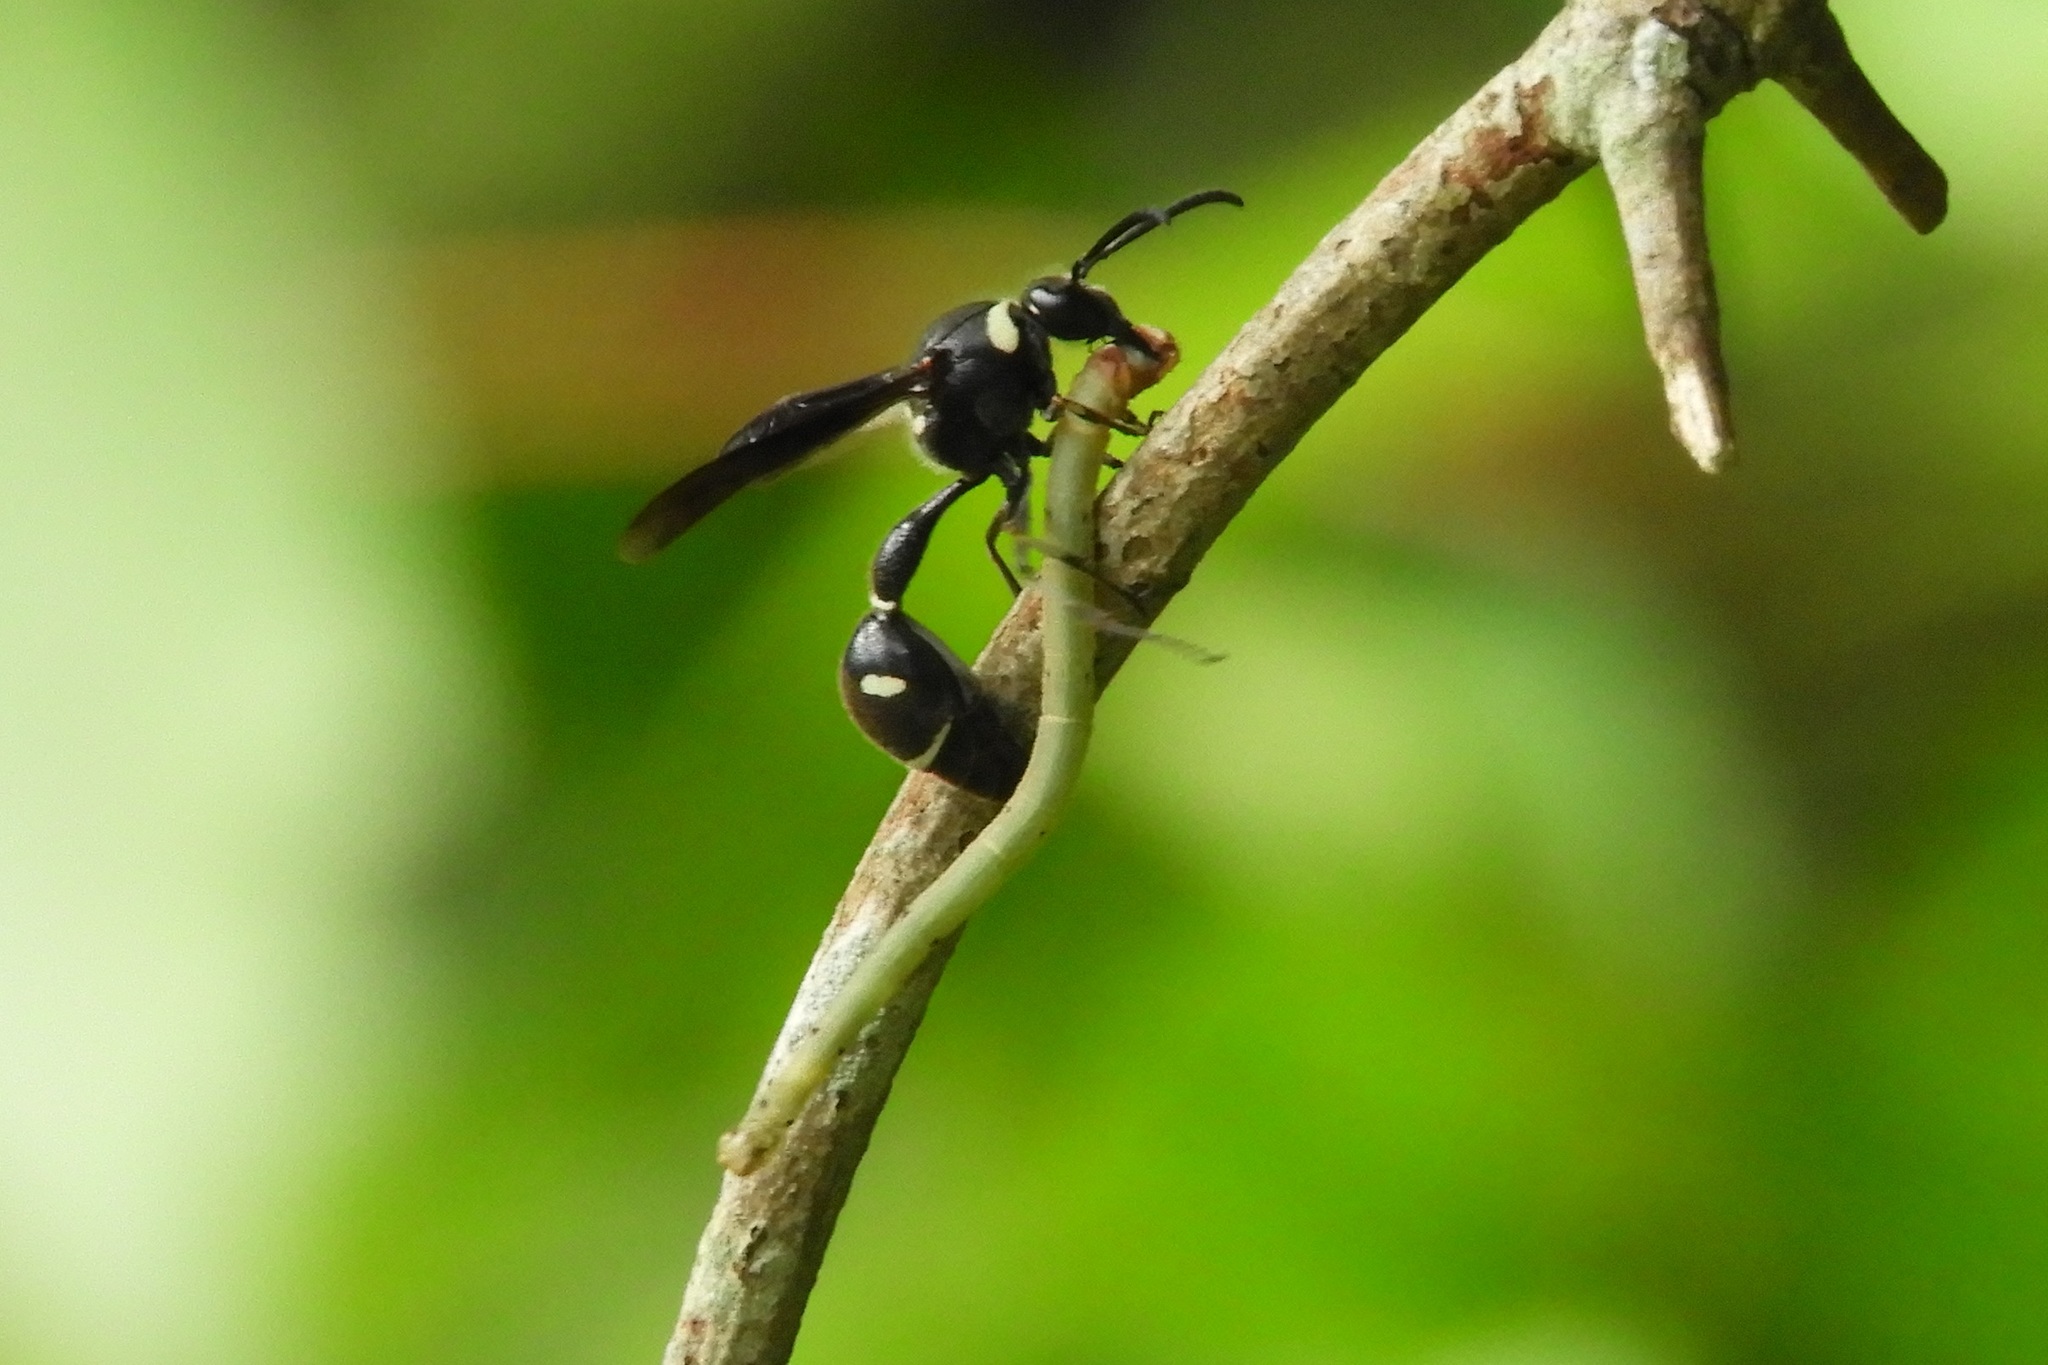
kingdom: Animalia
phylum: Arthropoda
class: Insecta
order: Hymenoptera
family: Vespidae
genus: Eumenes
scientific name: Eumenes fraternus
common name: Fraternal potter wasp
